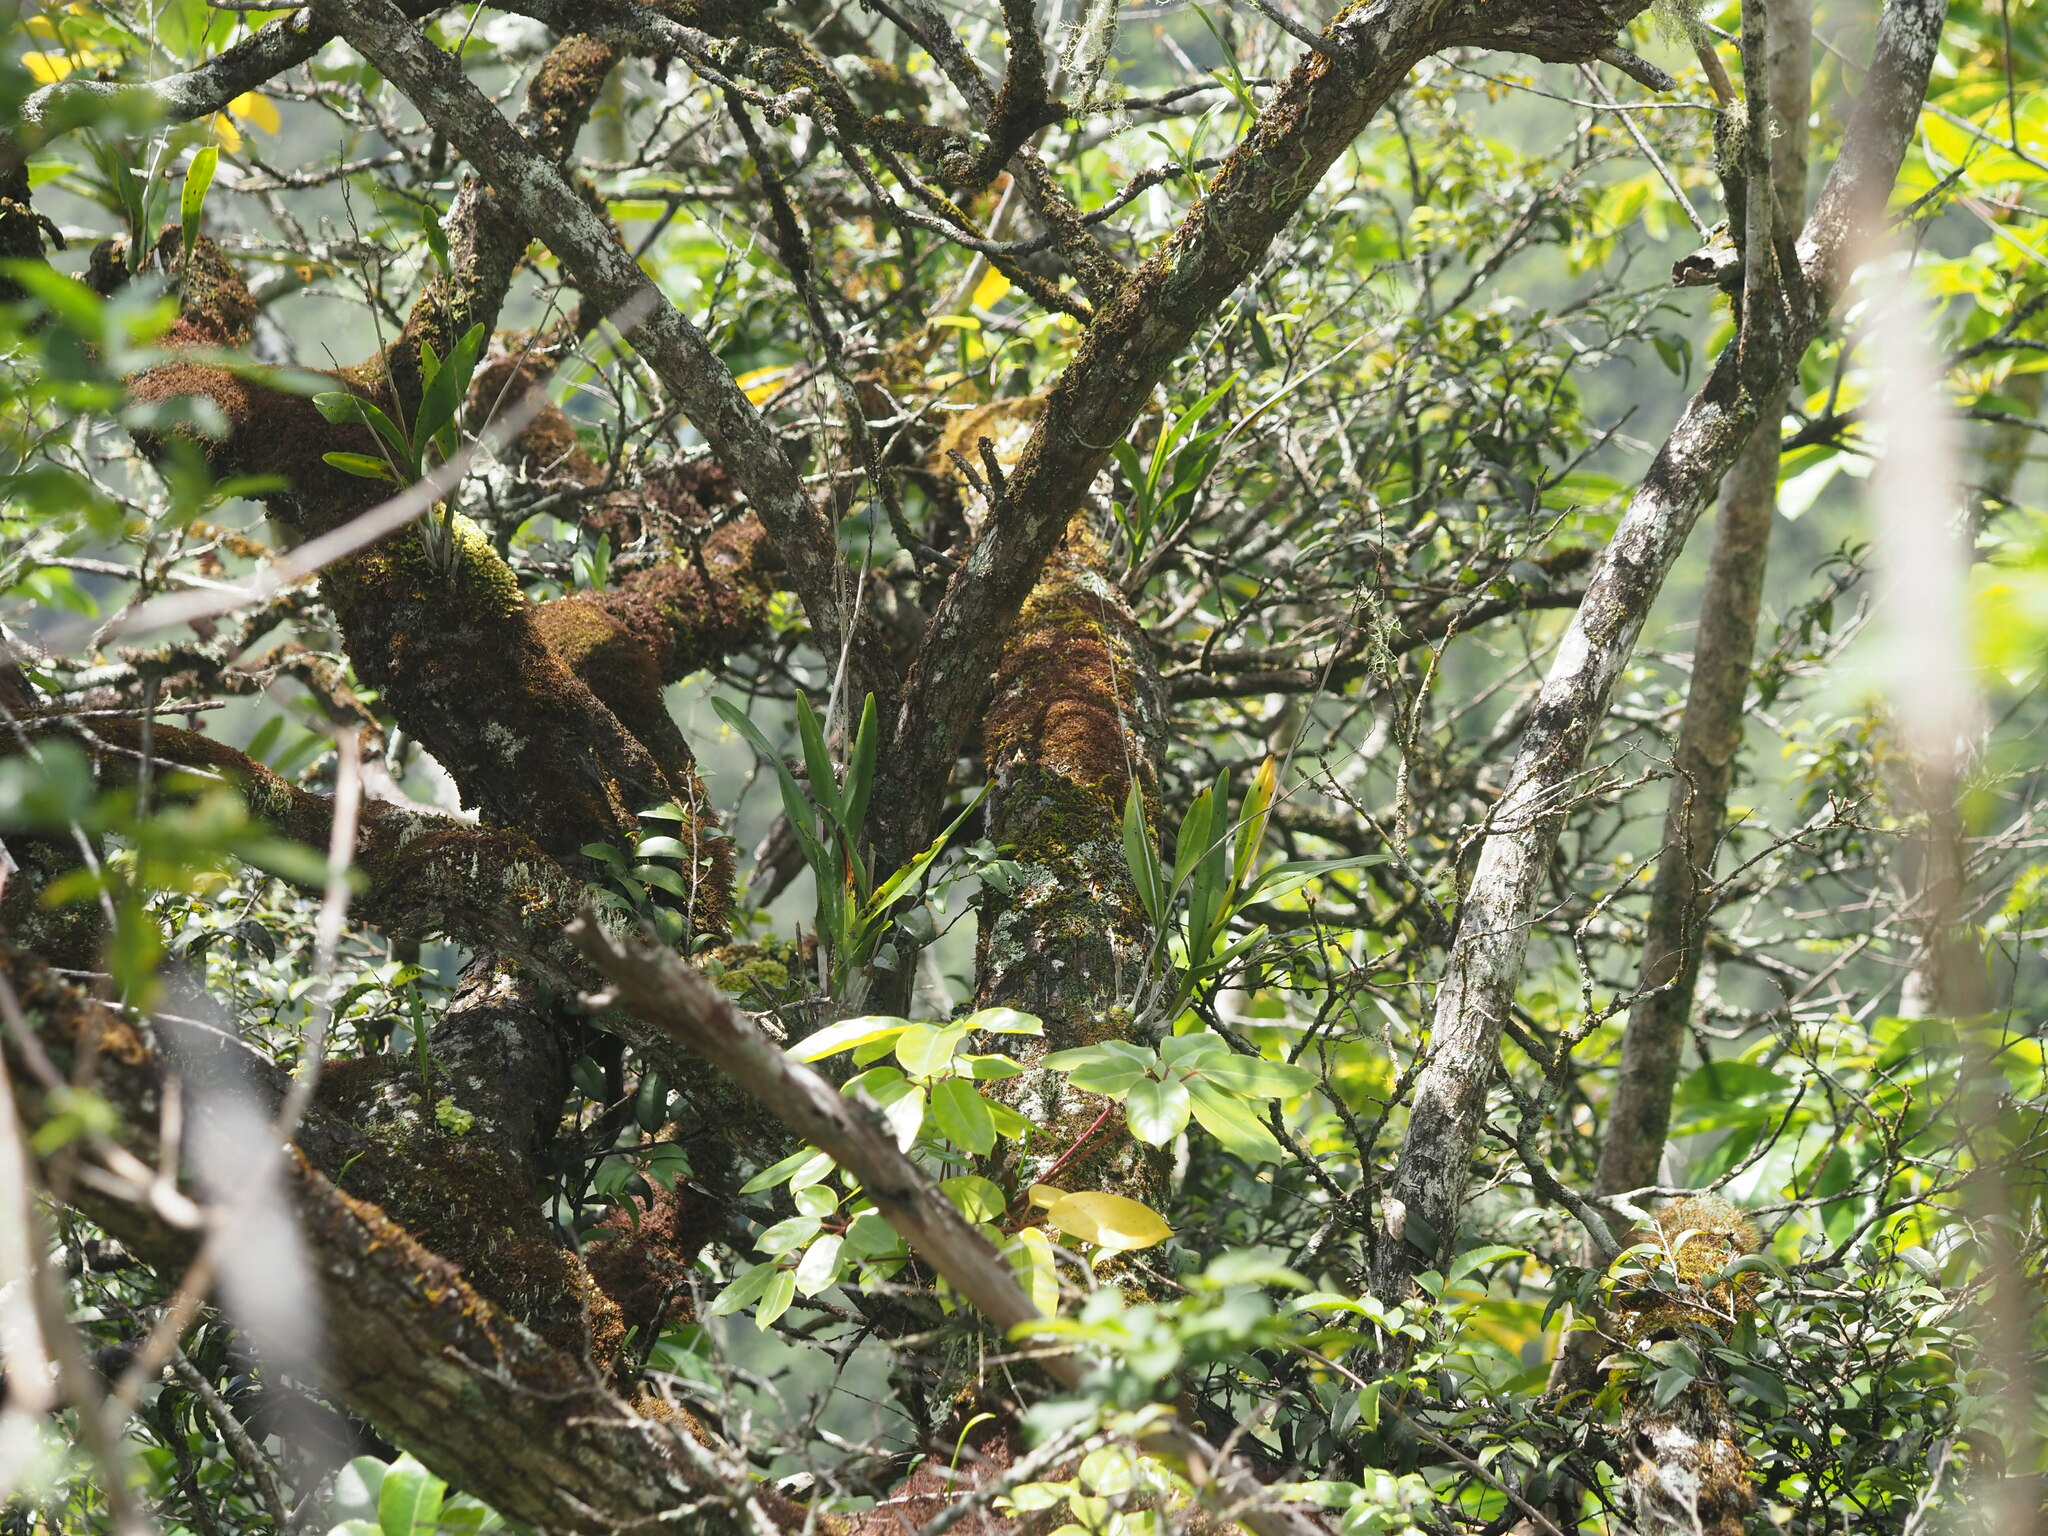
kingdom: Plantae
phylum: Tracheophyta
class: Liliopsida
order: Asparagales
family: Orchidaceae
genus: Polystachya
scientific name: Polystachya concreta
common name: Greater yellowspike orchid
